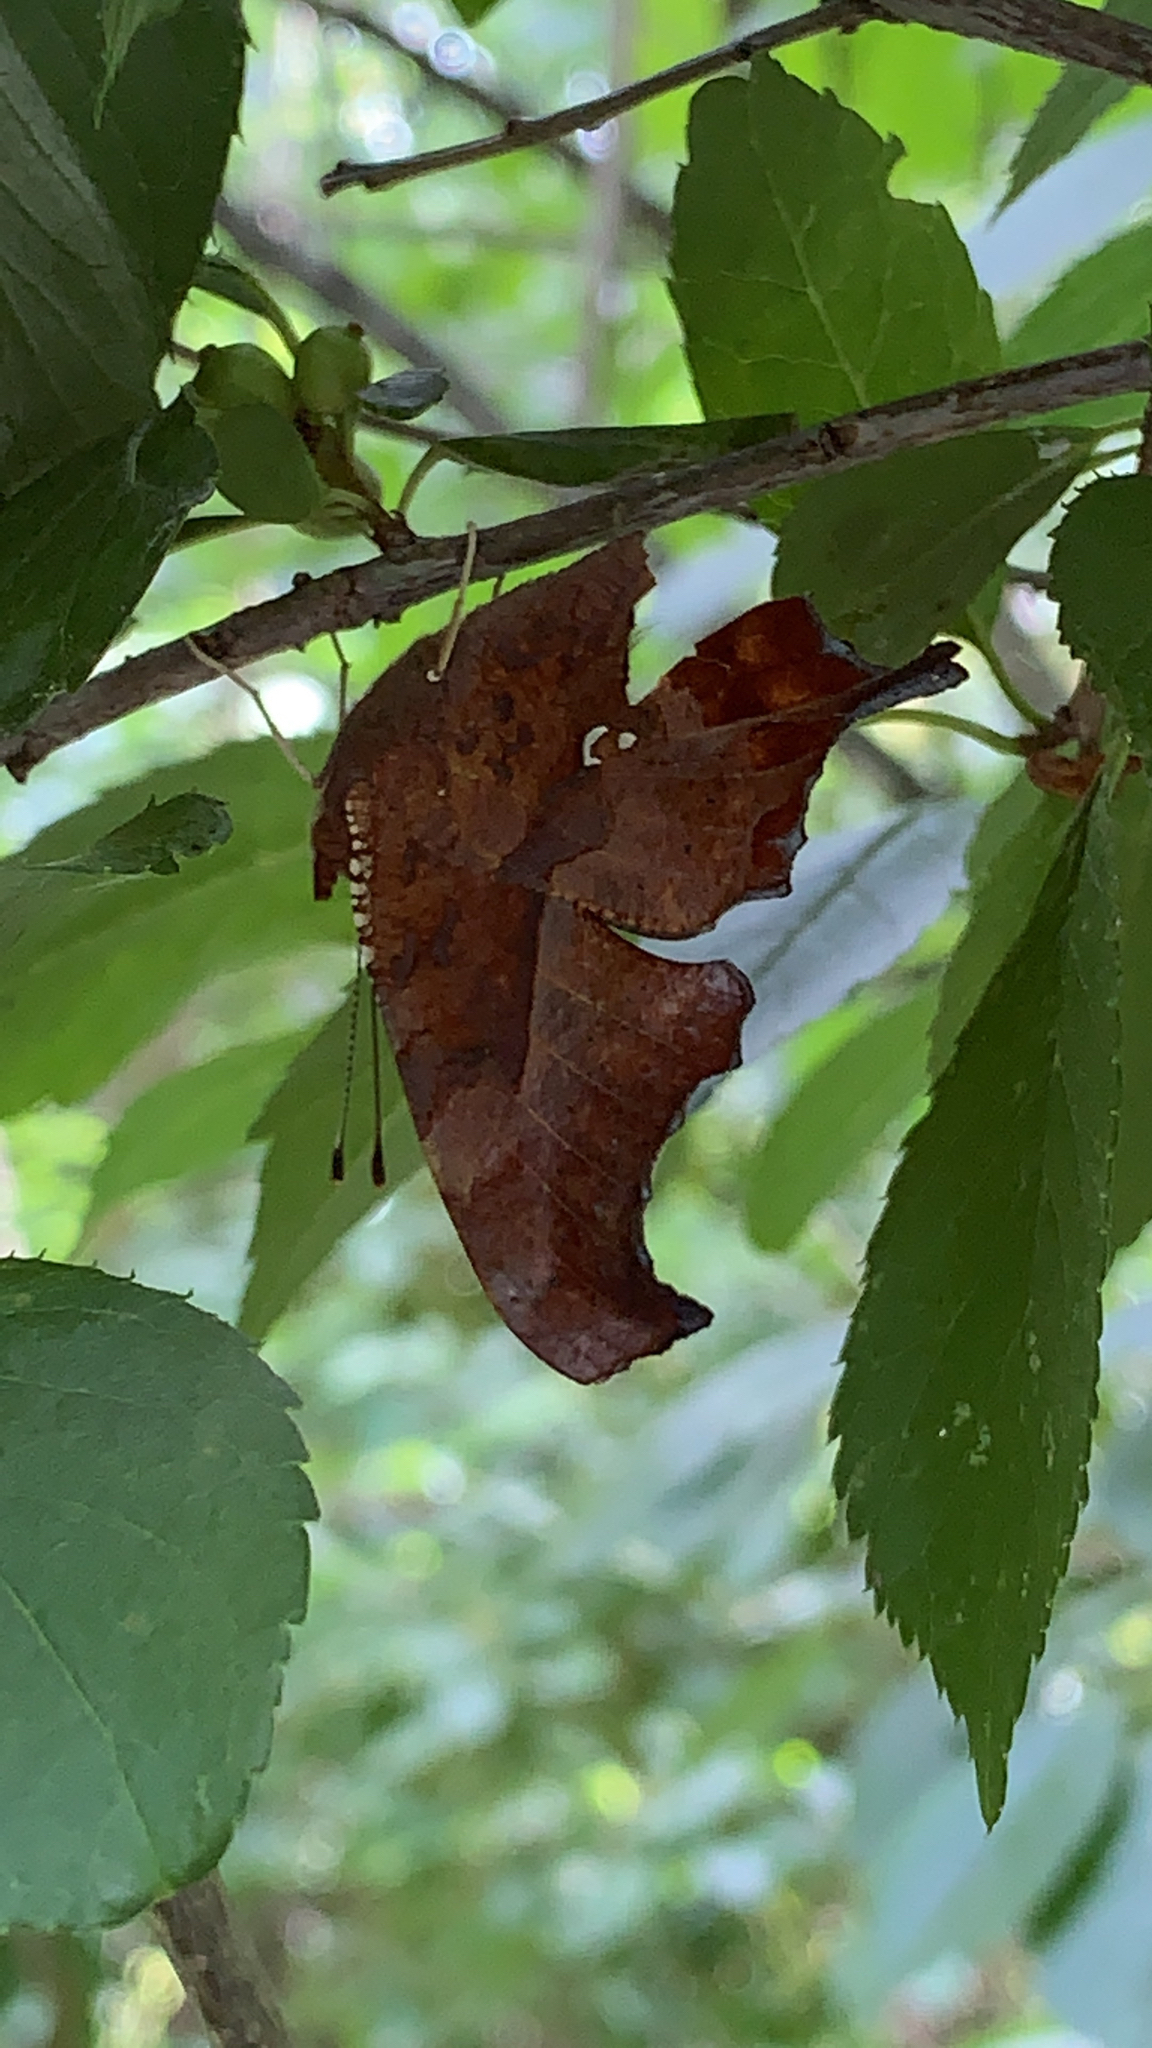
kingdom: Animalia
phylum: Arthropoda
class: Insecta
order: Lepidoptera
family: Nymphalidae
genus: Polygonia
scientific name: Polygonia interrogationis
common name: Question mark
